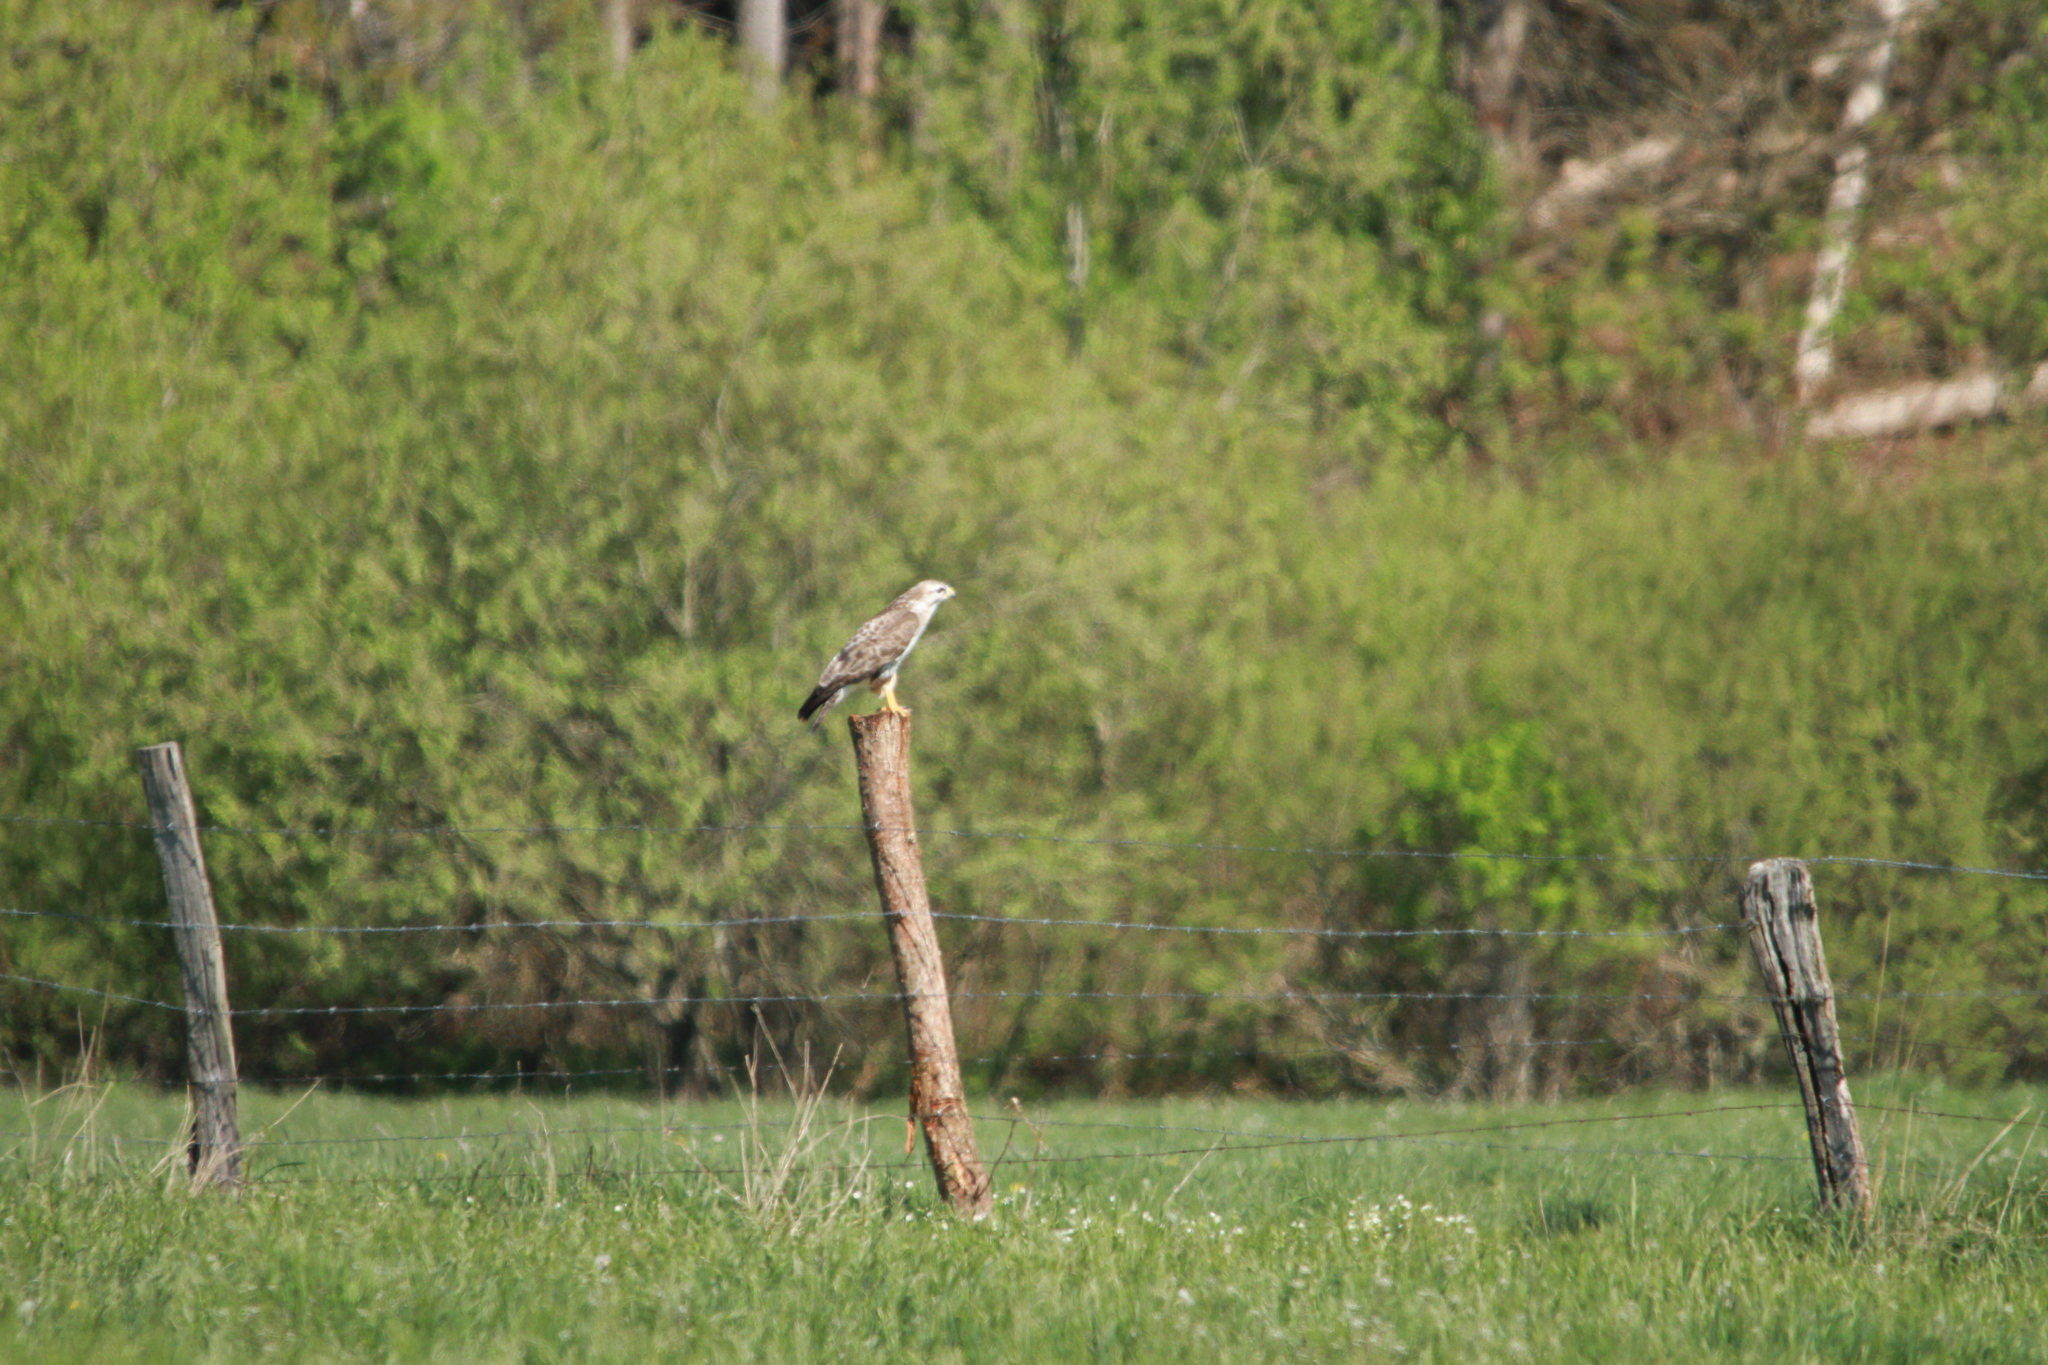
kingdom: Animalia
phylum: Chordata
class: Aves
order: Accipitriformes
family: Accipitridae
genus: Buteo
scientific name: Buteo buteo
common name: Common buzzard
